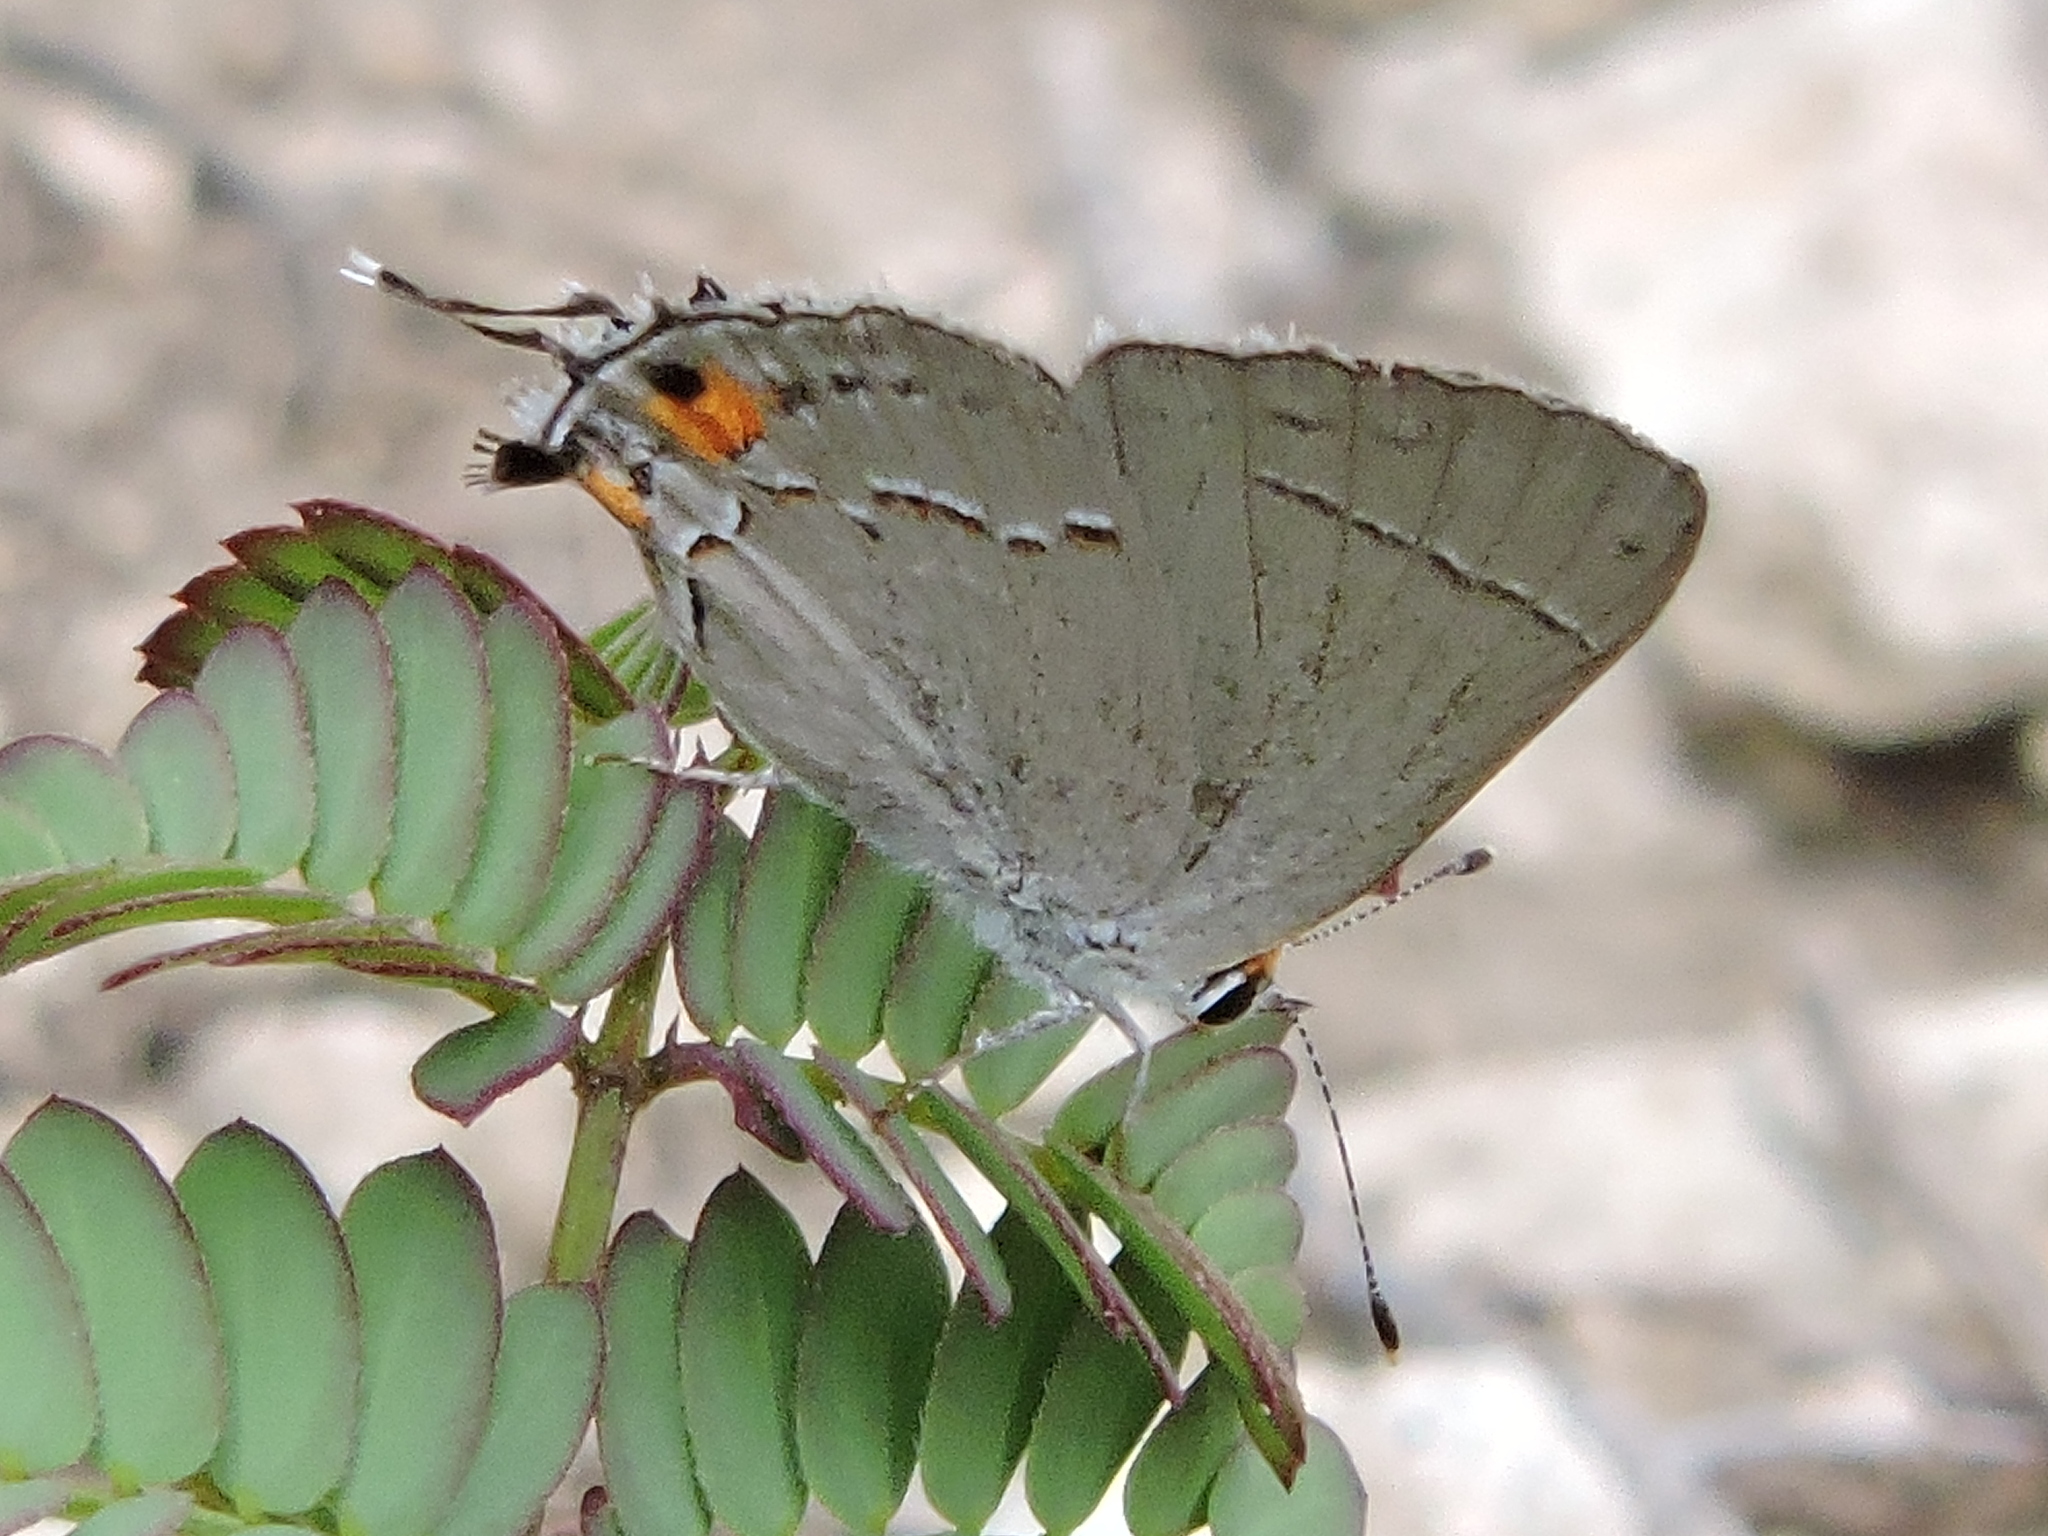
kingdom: Animalia
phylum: Arthropoda
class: Insecta
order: Lepidoptera
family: Lycaenidae
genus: Strymon
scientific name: Strymon melinus
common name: Gray hairstreak
